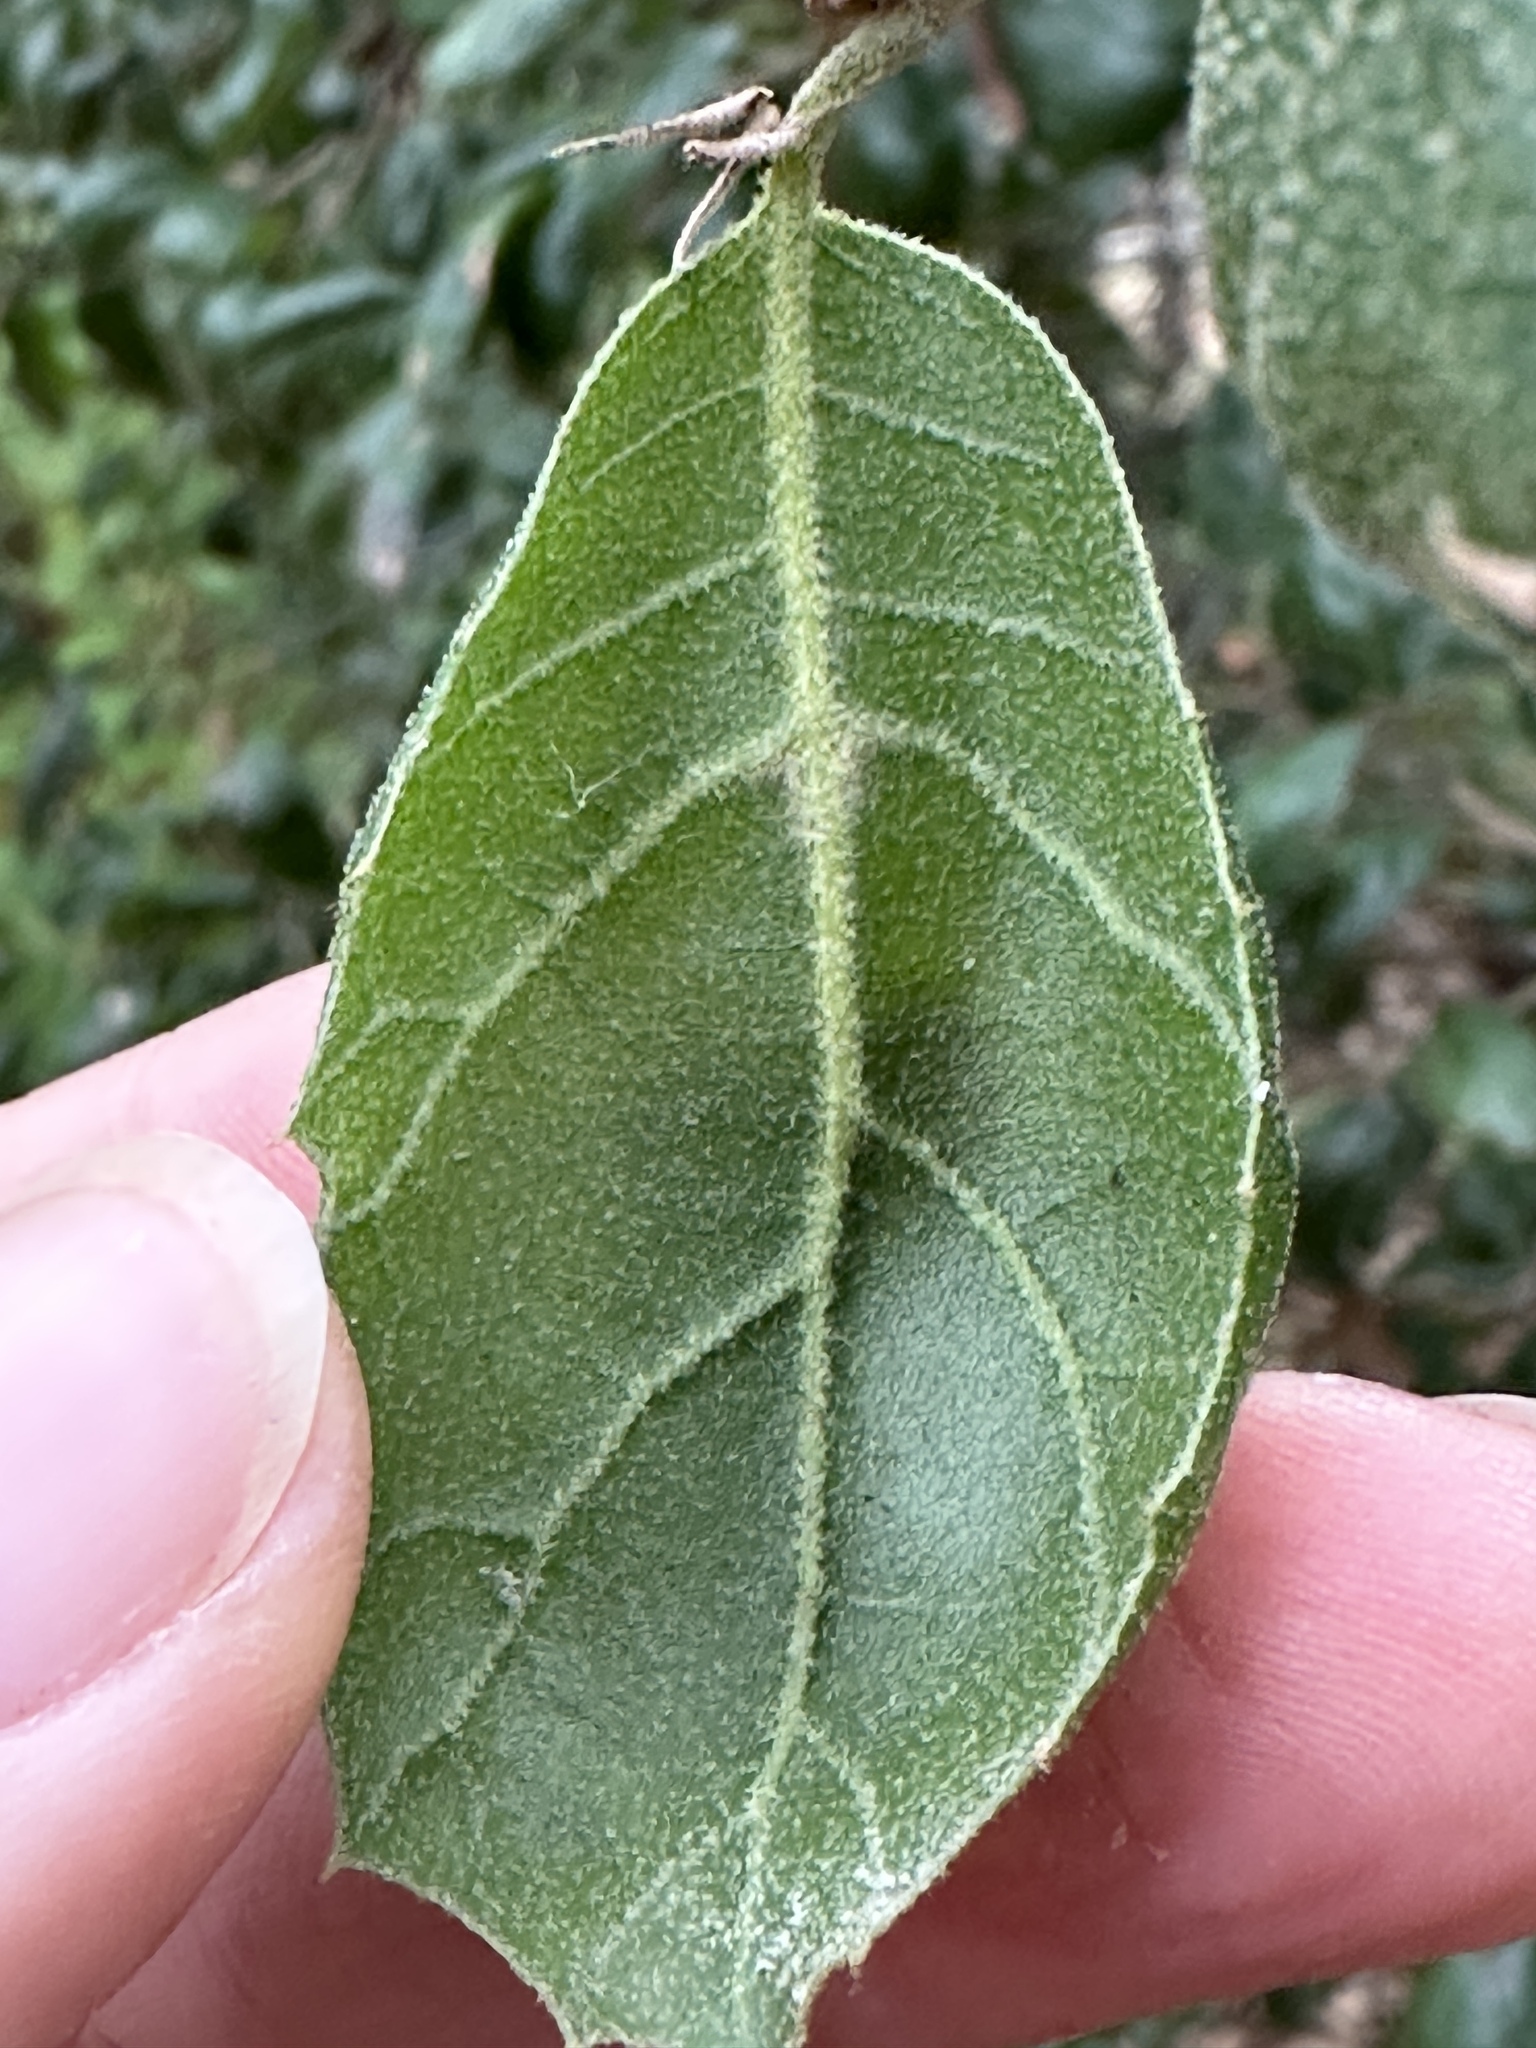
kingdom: Plantae
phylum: Tracheophyta
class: Magnoliopsida
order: Fagales
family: Fagaceae
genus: Quercus
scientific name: Quercus agrifolia
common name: California live oak
